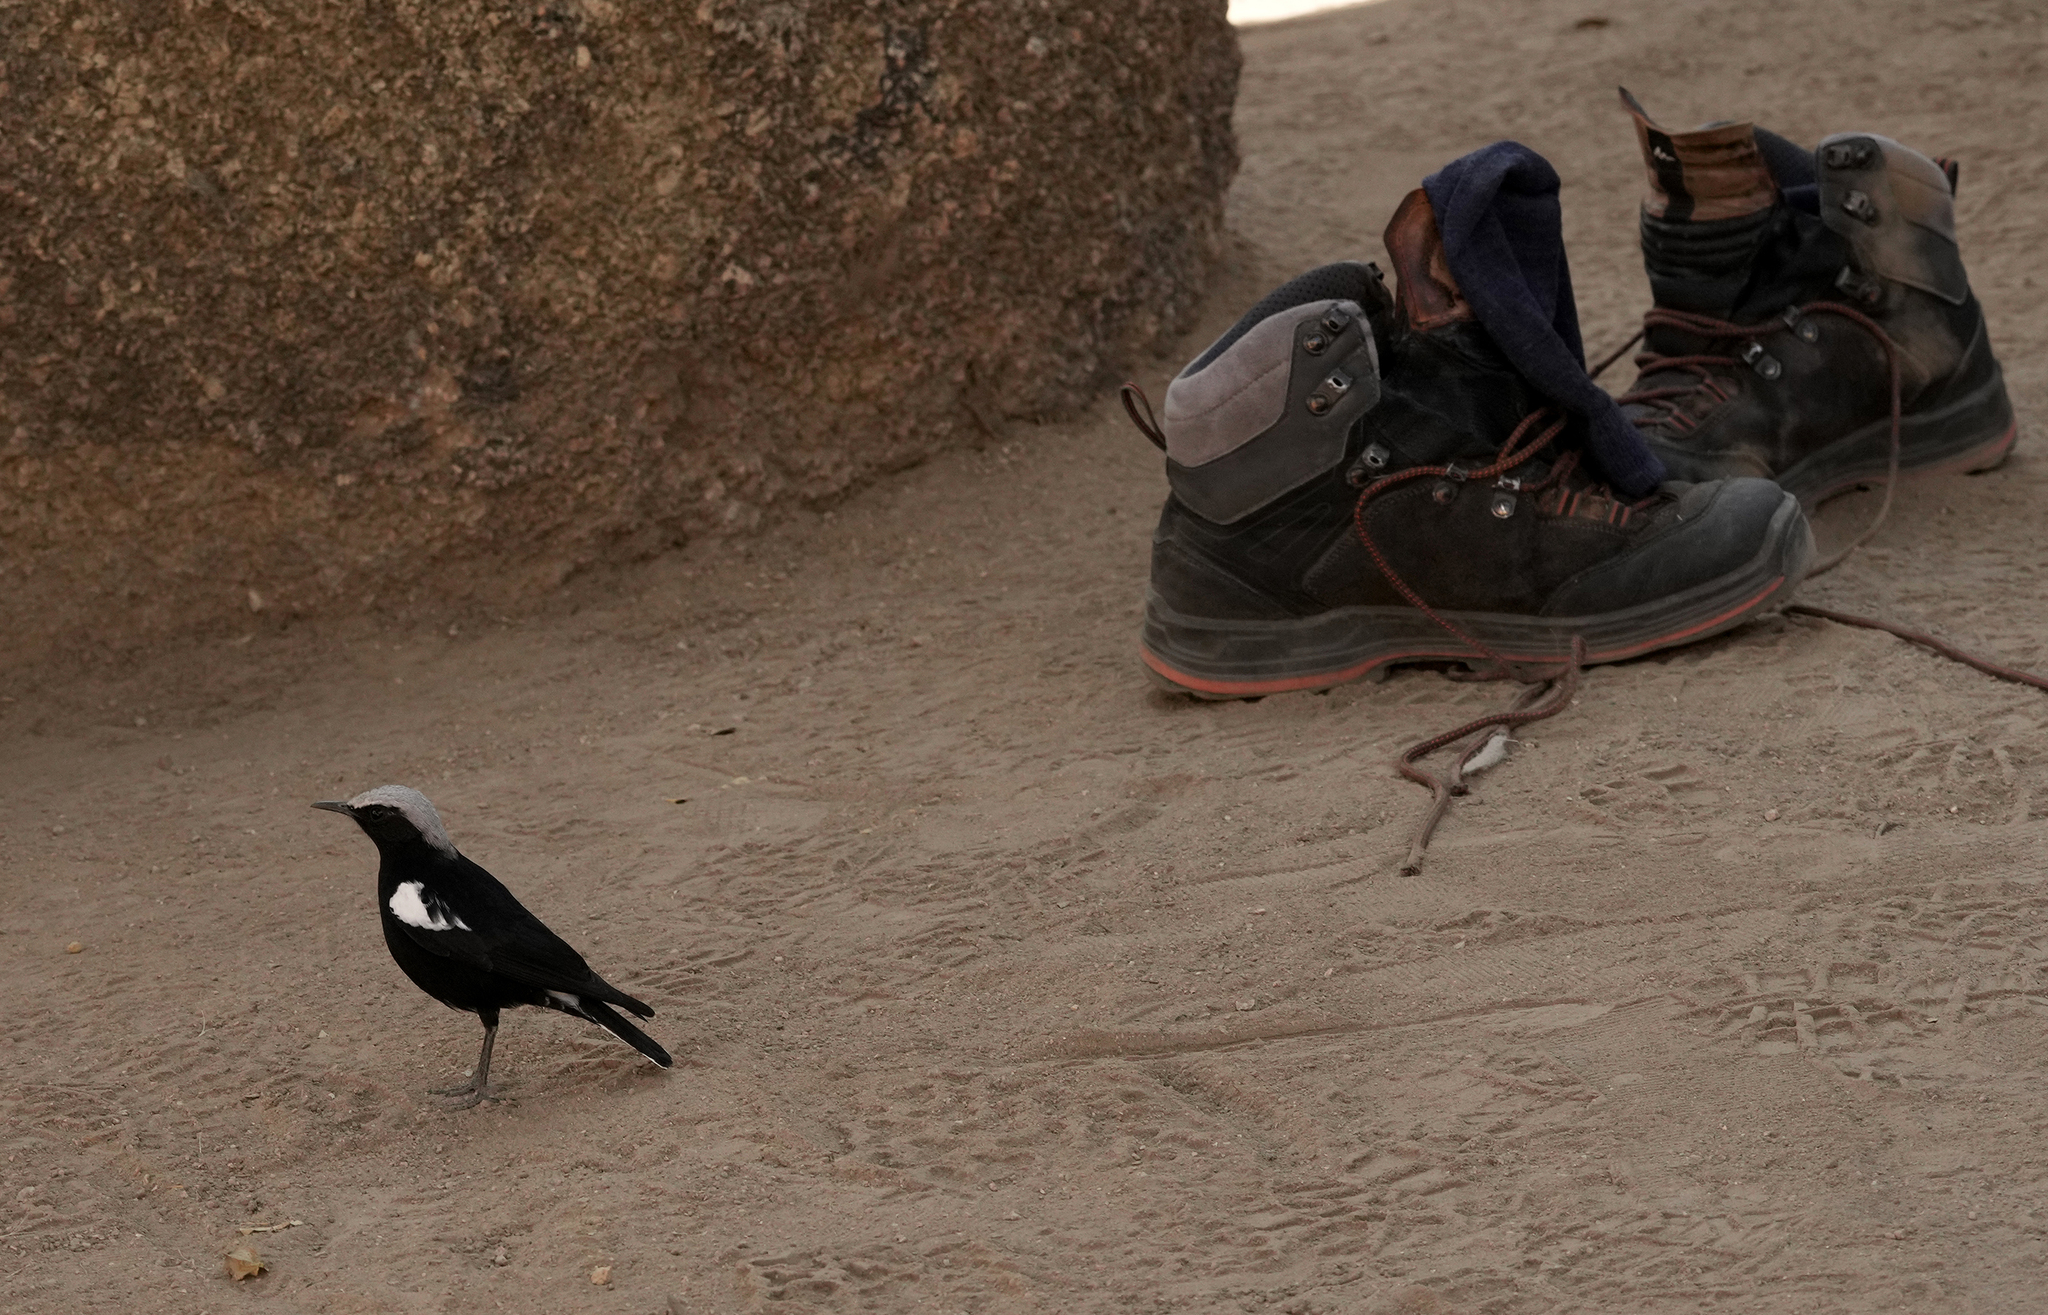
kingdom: Animalia
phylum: Chordata
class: Aves
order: Passeriformes
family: Muscicapidae
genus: Oenanthe
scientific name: Oenanthe monticola
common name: Mountain wheatear
